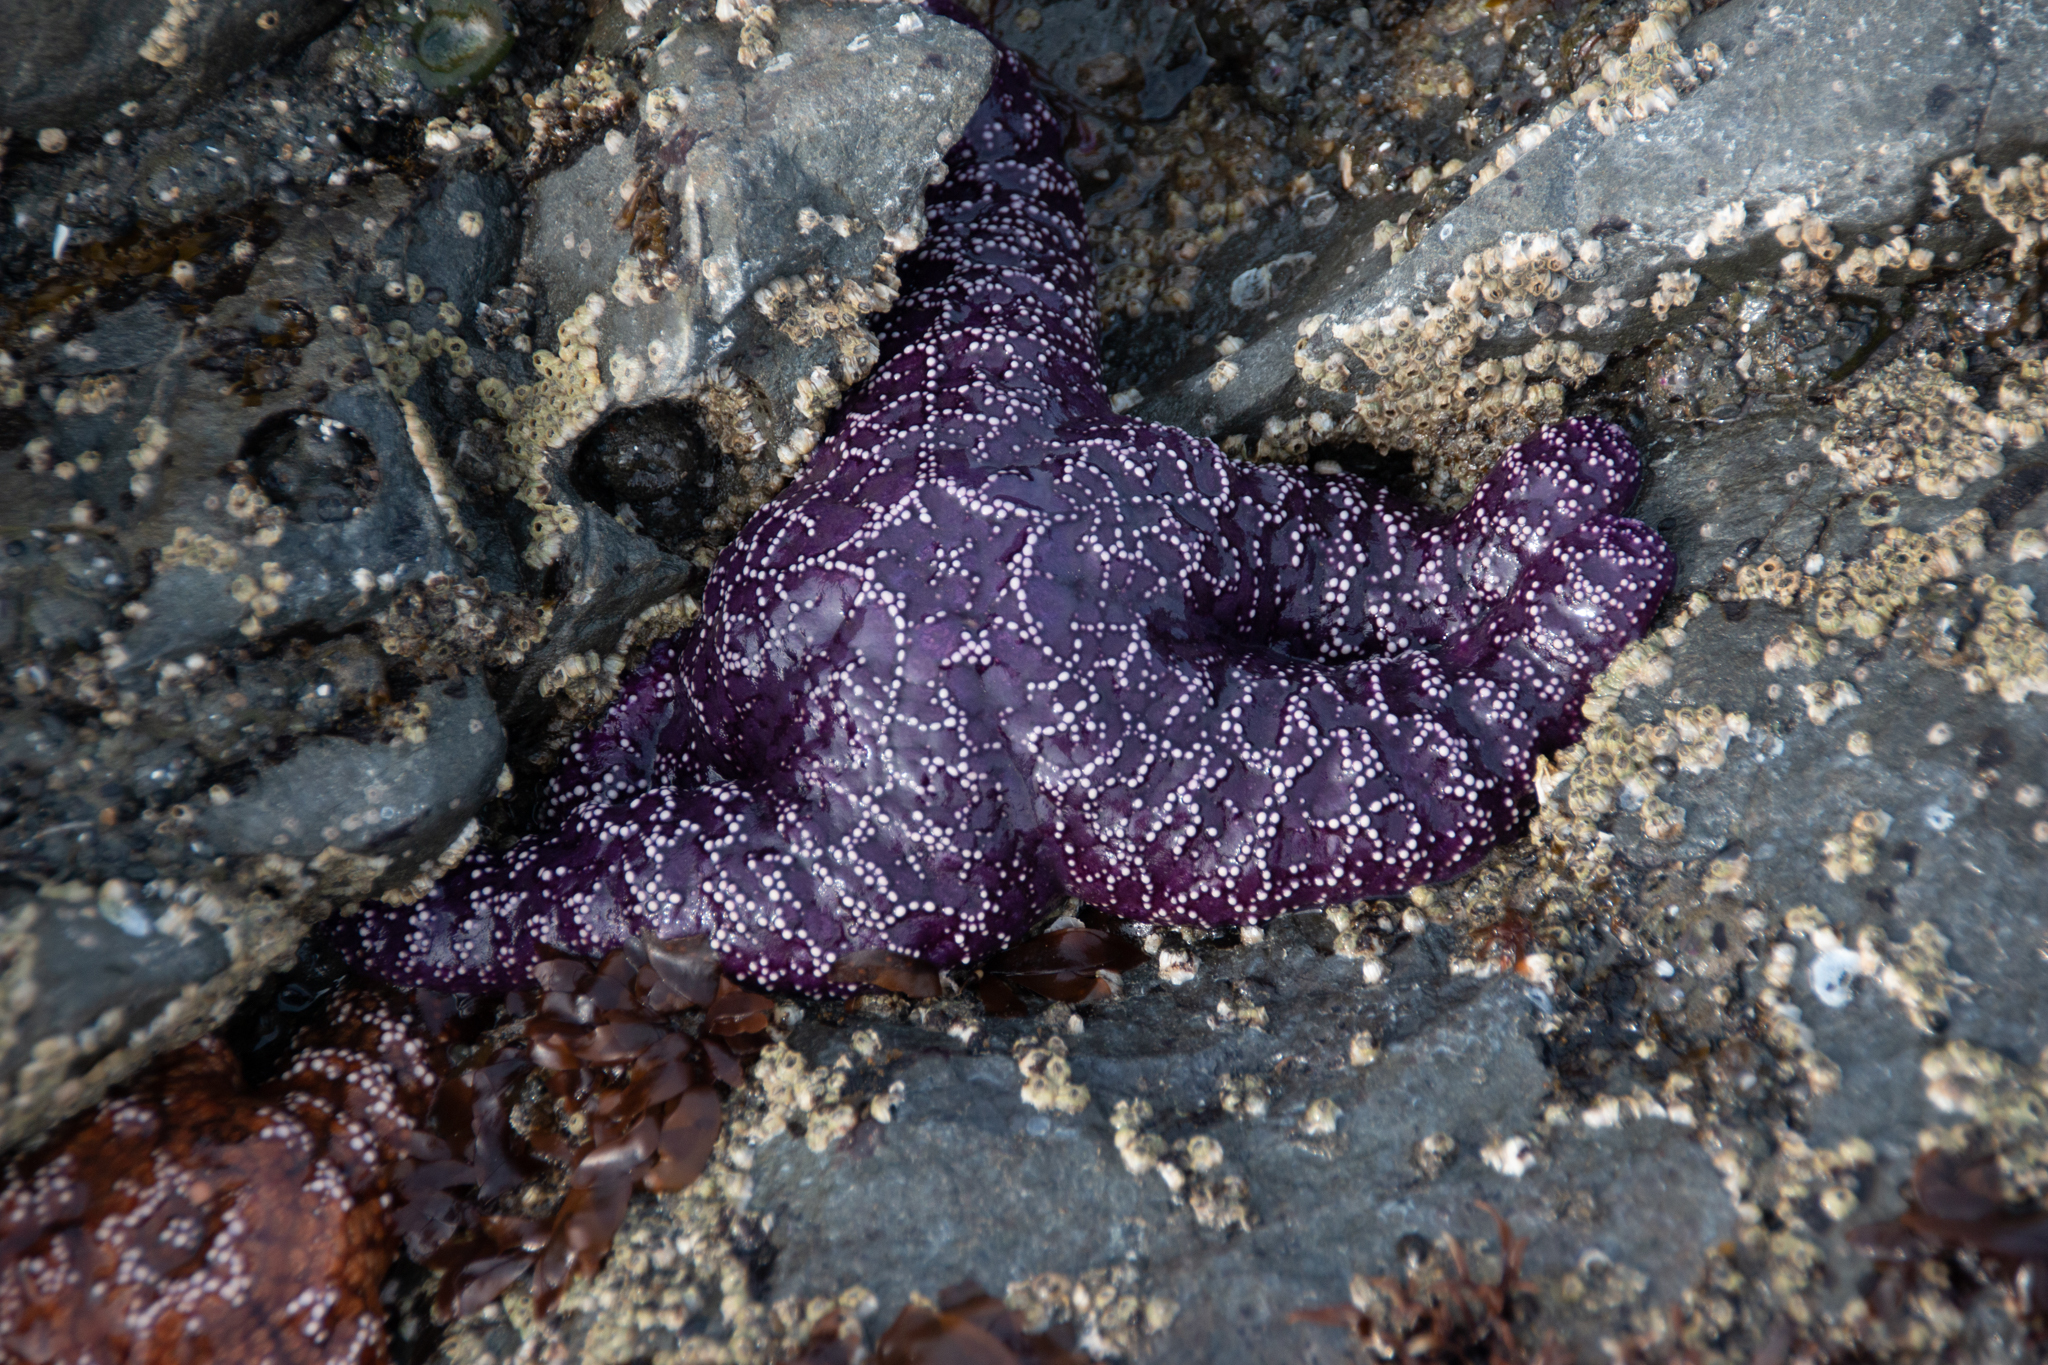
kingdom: Animalia
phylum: Echinodermata
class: Asteroidea
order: Forcipulatida
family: Asteriidae
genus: Pisaster
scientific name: Pisaster ochraceus
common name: Ochre stars
